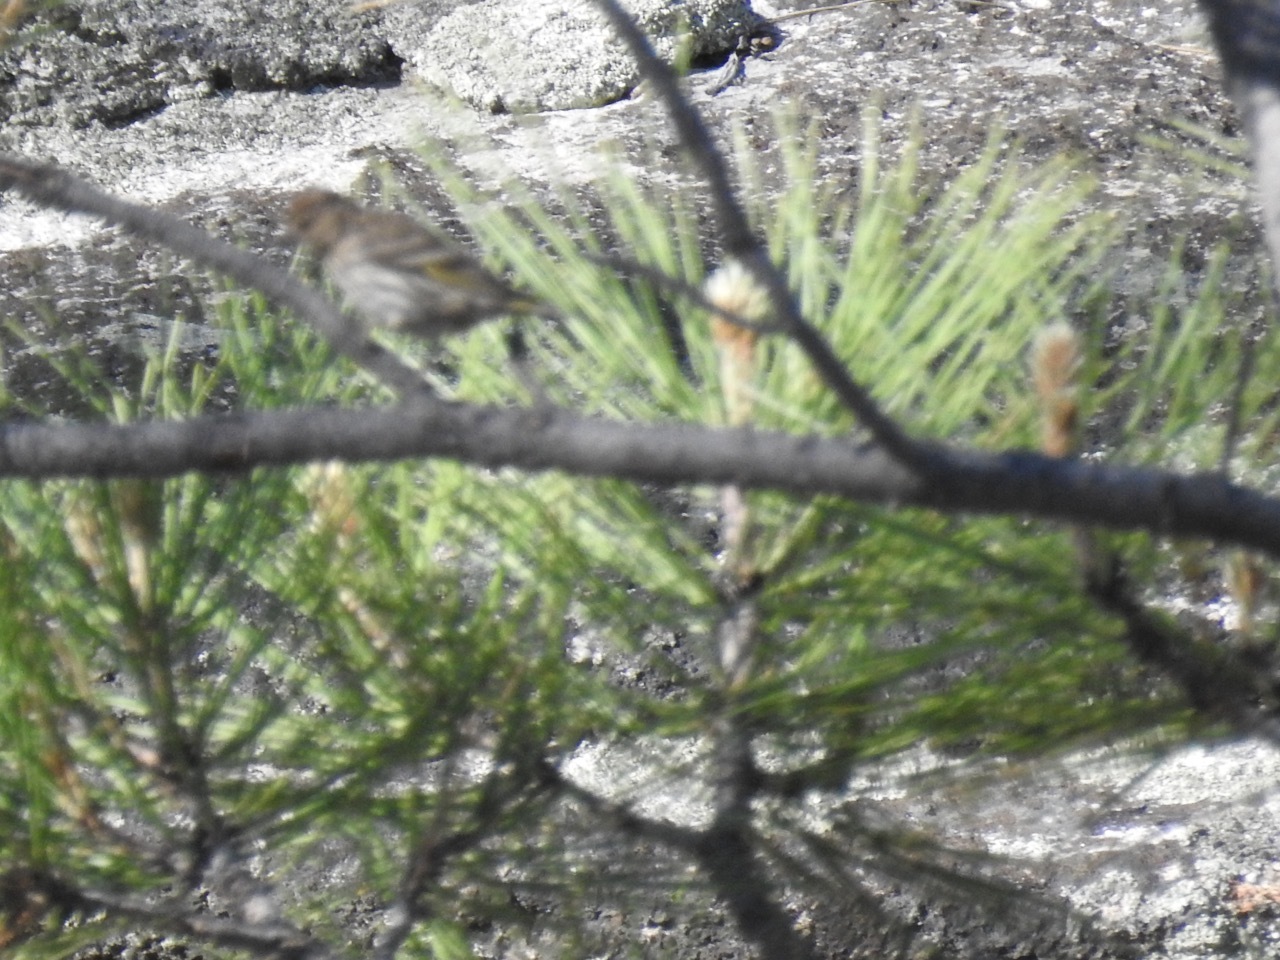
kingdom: Animalia
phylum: Chordata
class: Aves
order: Passeriformes
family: Fringillidae
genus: Spinus
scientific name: Spinus pinus
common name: Pine siskin
